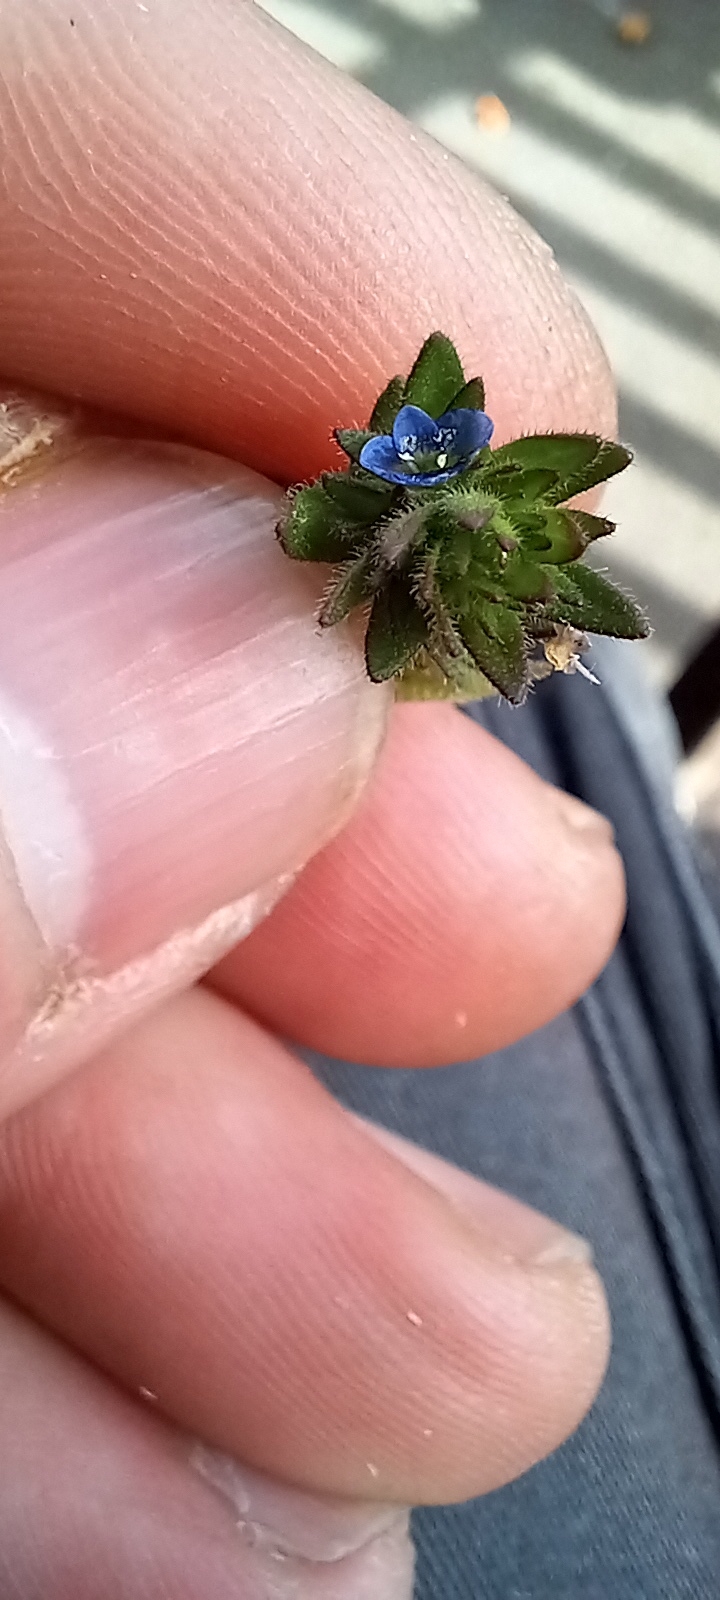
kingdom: Plantae
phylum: Tracheophyta
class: Magnoliopsida
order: Lamiales
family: Plantaginaceae
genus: Veronica
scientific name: Veronica arvensis
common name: Corn speedwell
